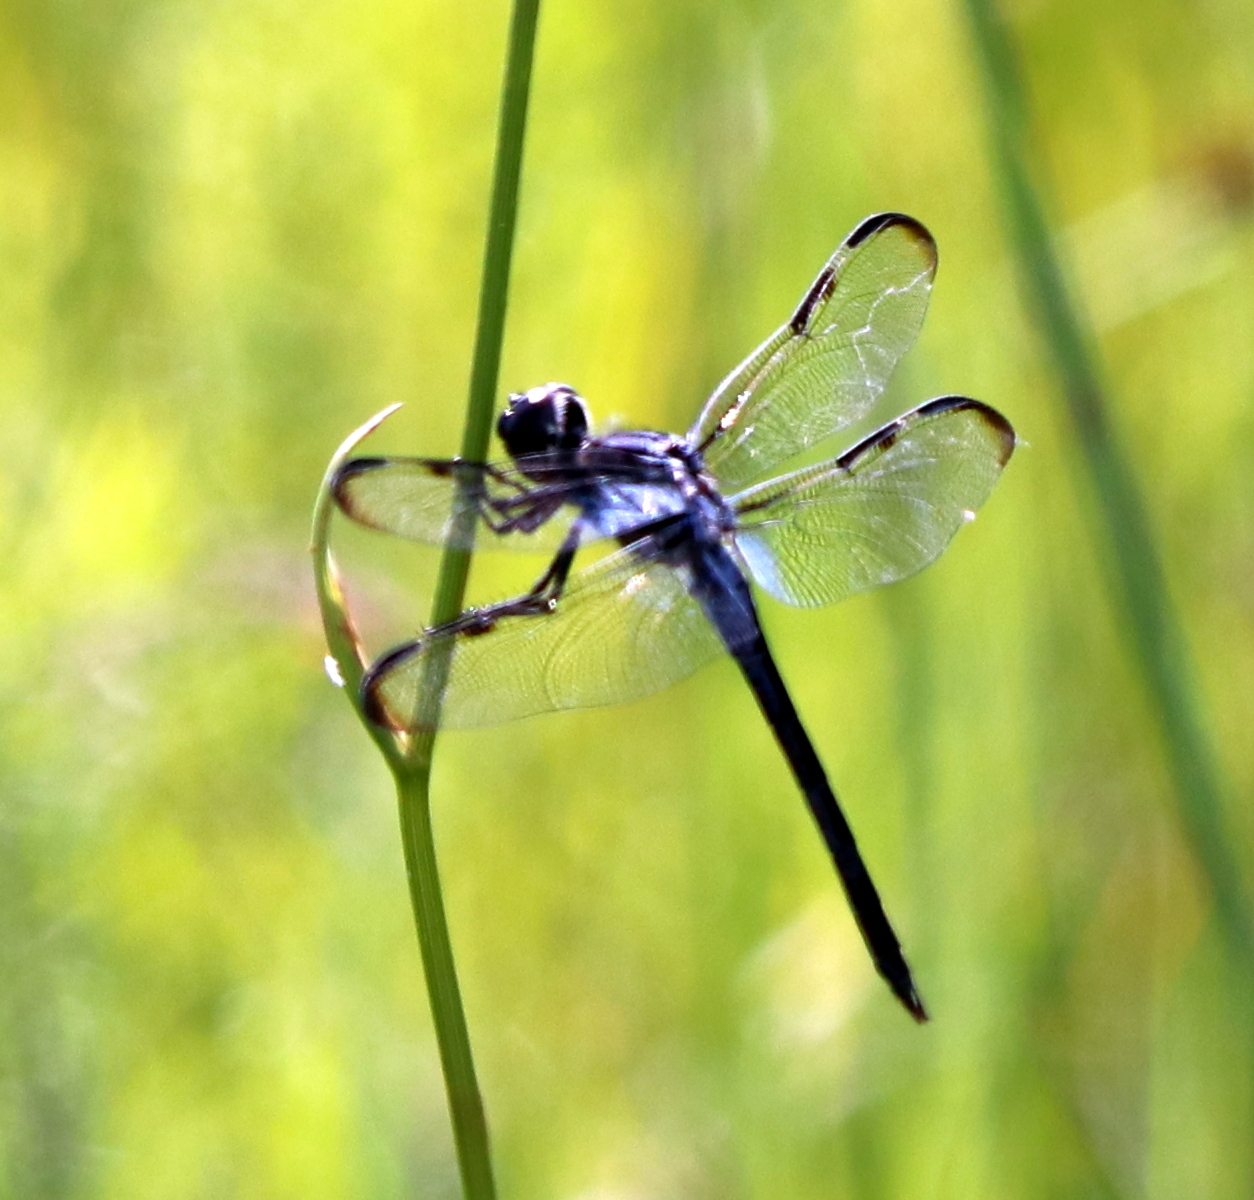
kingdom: Animalia
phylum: Arthropoda
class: Insecta
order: Odonata
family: Libellulidae
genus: Libellula
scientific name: Libellula axilena
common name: Bar-winged skimmer
